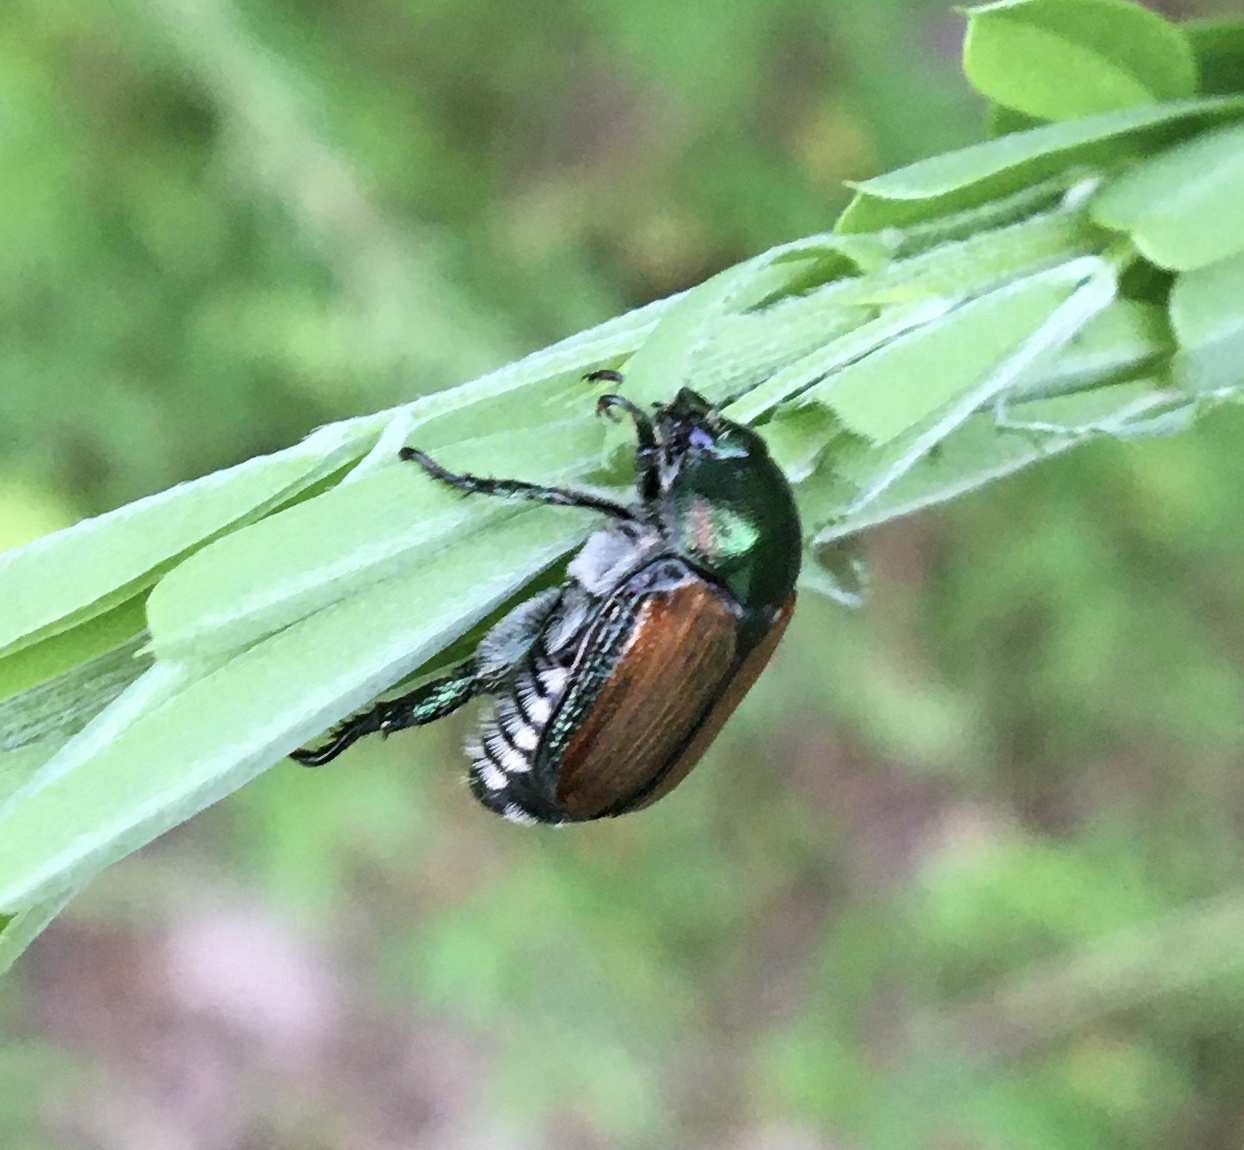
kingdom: Animalia
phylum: Arthropoda
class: Insecta
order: Coleoptera
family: Scarabaeidae
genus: Popillia
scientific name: Popillia japonica
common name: Japanese beetle
